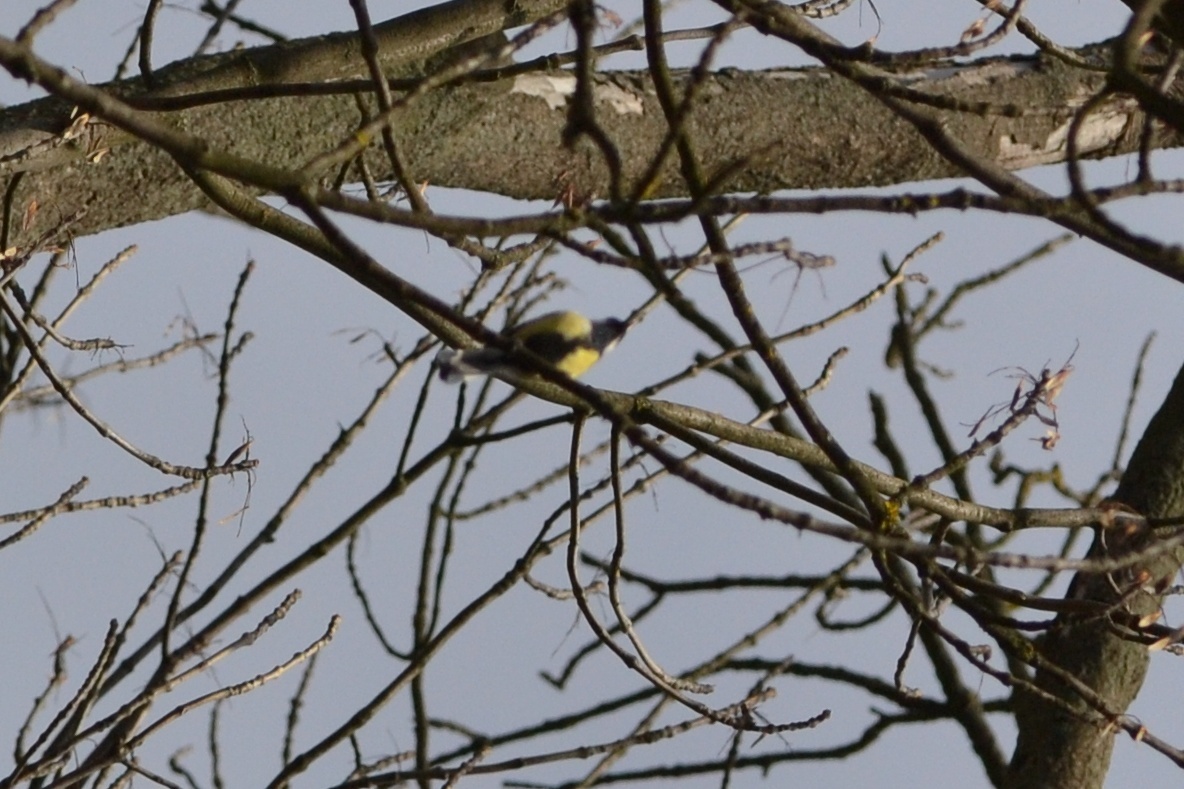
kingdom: Animalia
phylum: Chordata
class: Aves
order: Passeriformes
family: Paridae
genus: Parus
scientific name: Parus major
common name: Great tit
